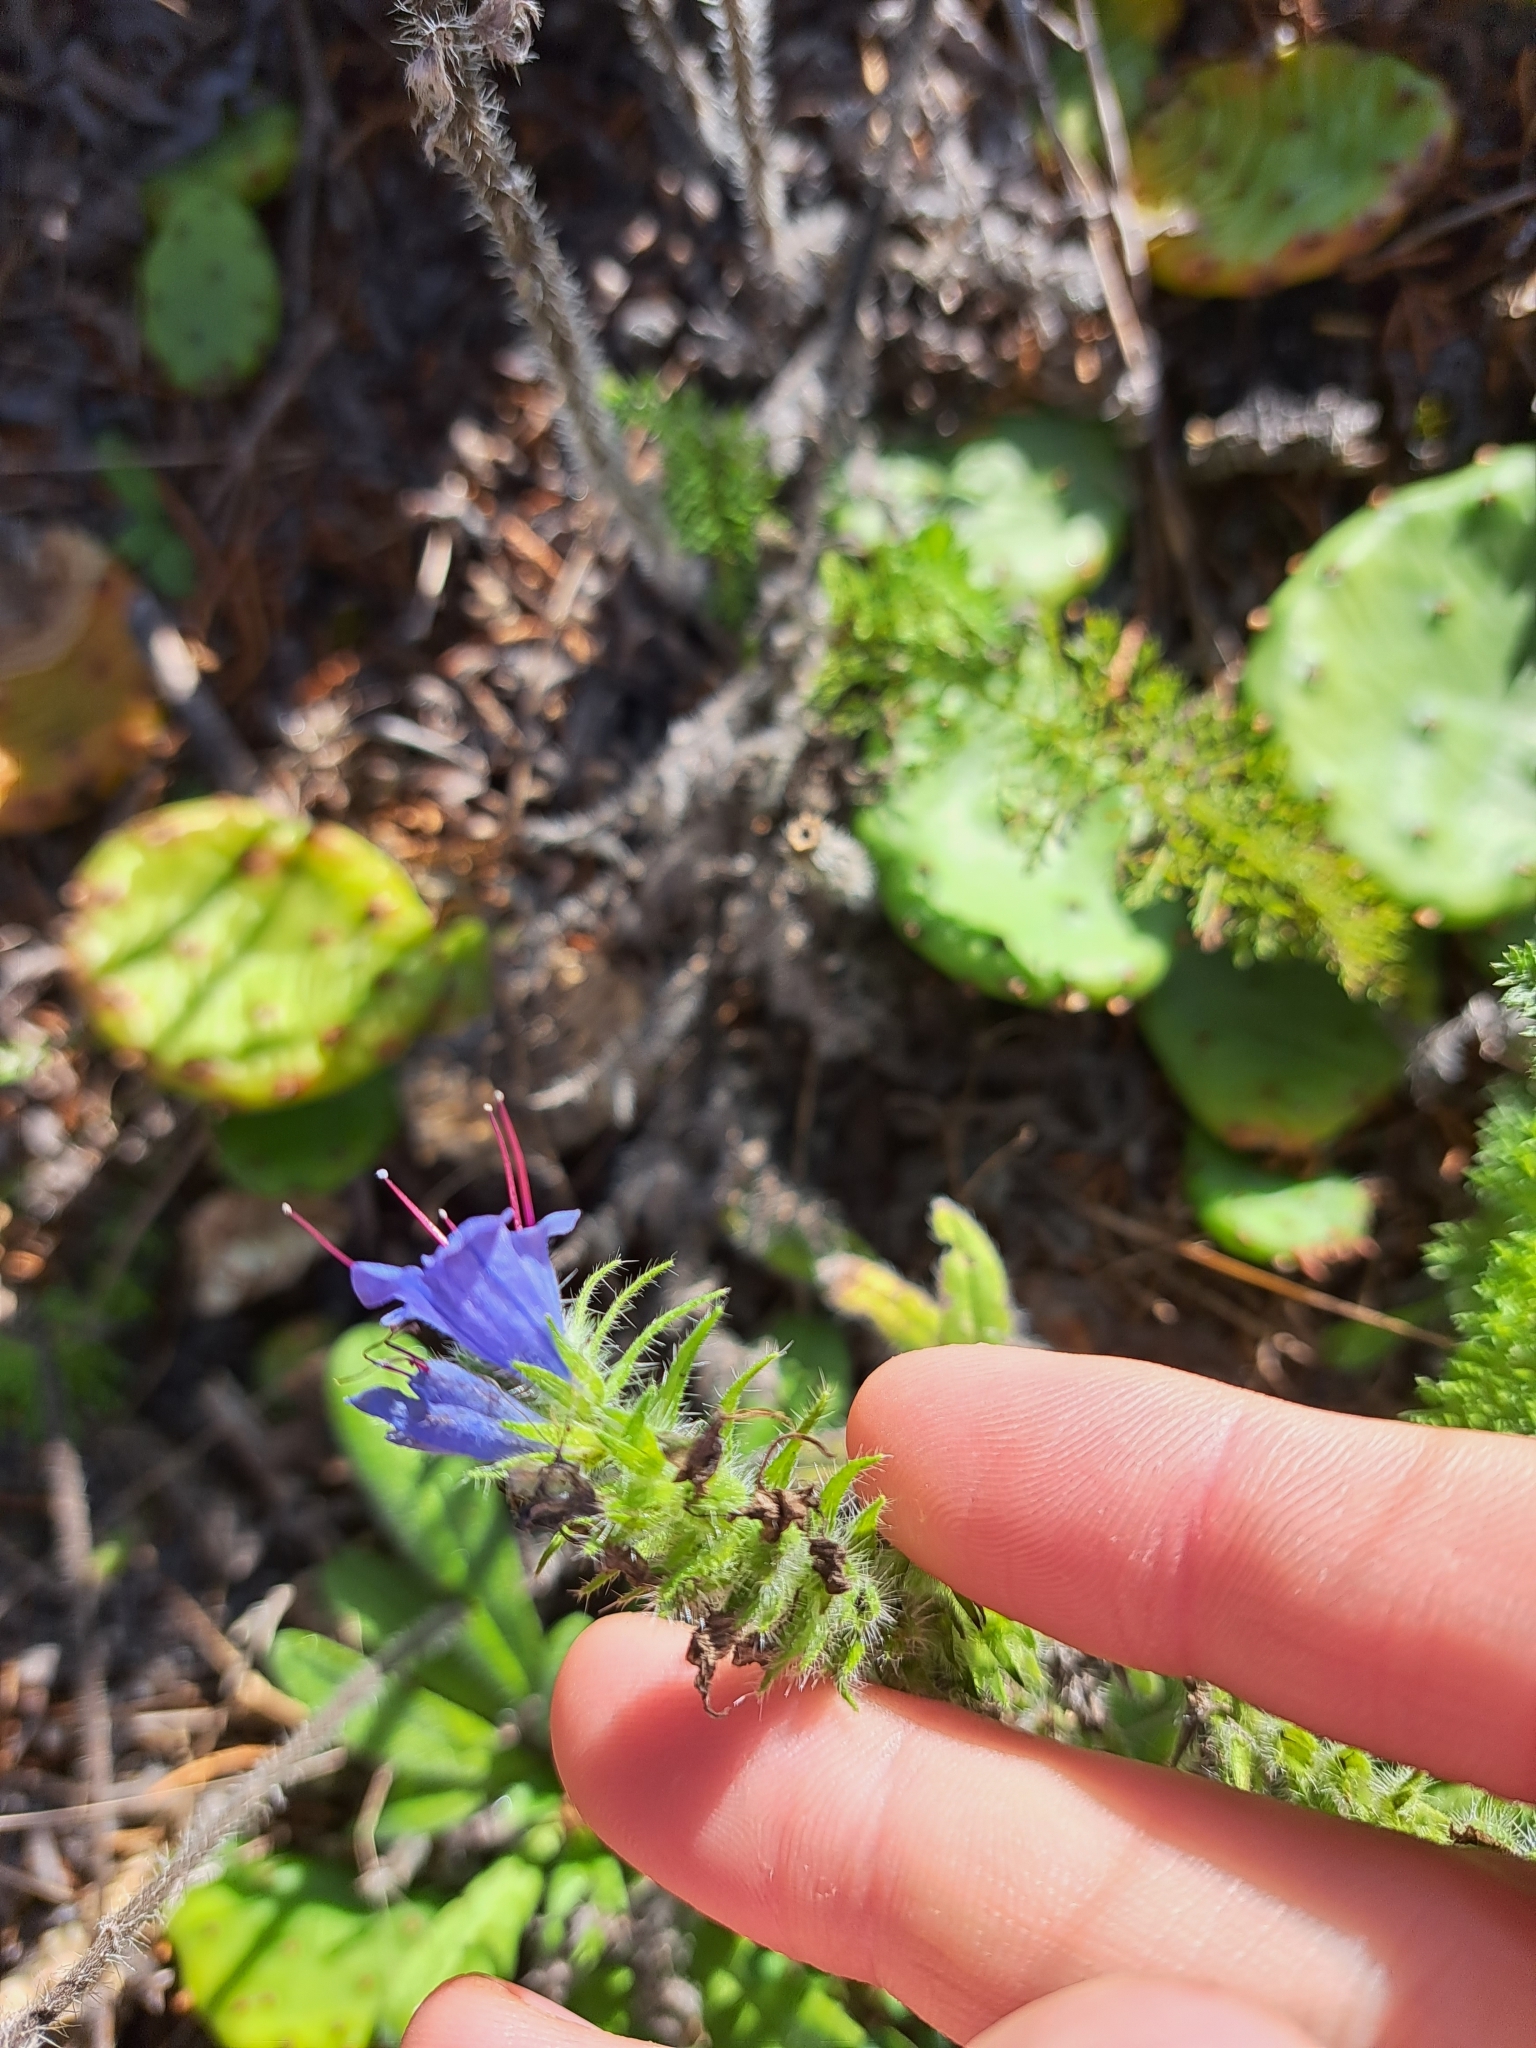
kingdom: Plantae
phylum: Tracheophyta
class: Magnoliopsida
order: Boraginales
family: Boraginaceae
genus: Echium
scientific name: Echium vulgare
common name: Common viper's bugloss
